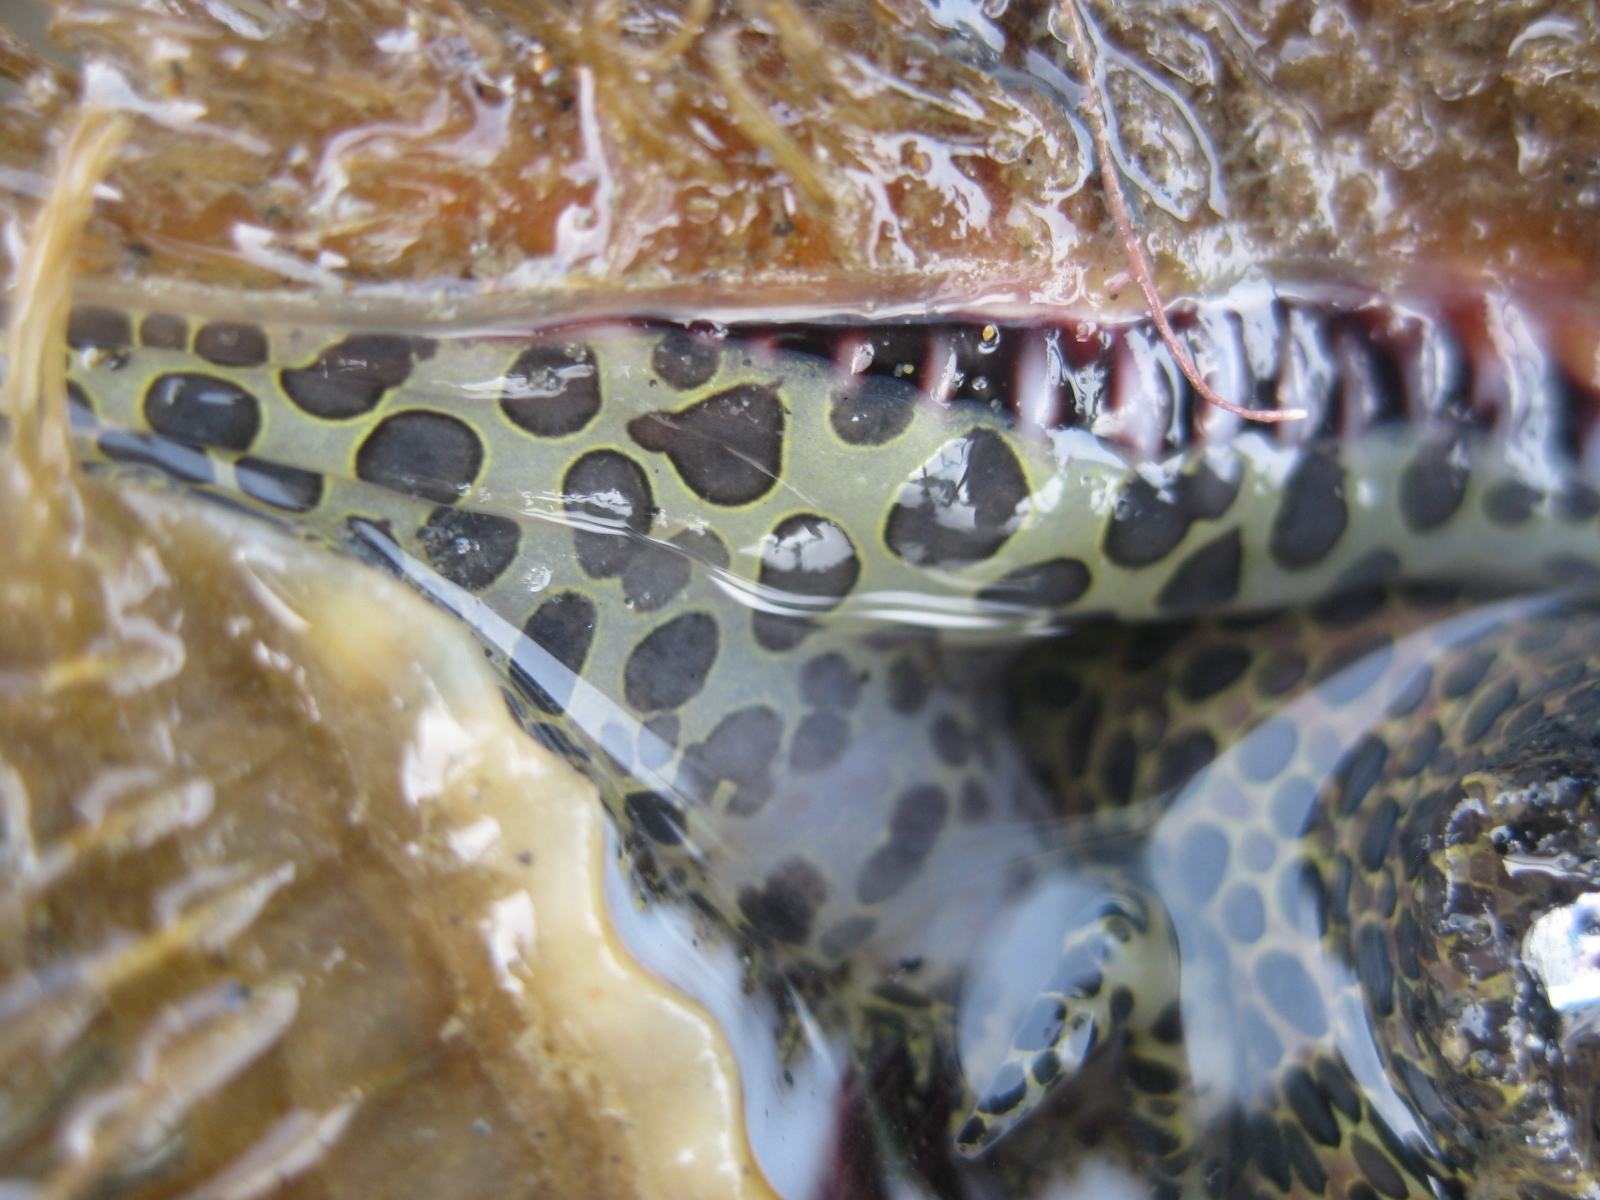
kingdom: Animalia
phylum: Mollusca
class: Gastropoda
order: Littorinimorpha
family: Cymatiidae
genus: Monoplex
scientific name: Monoplex parthenopeus
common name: Giant triton
